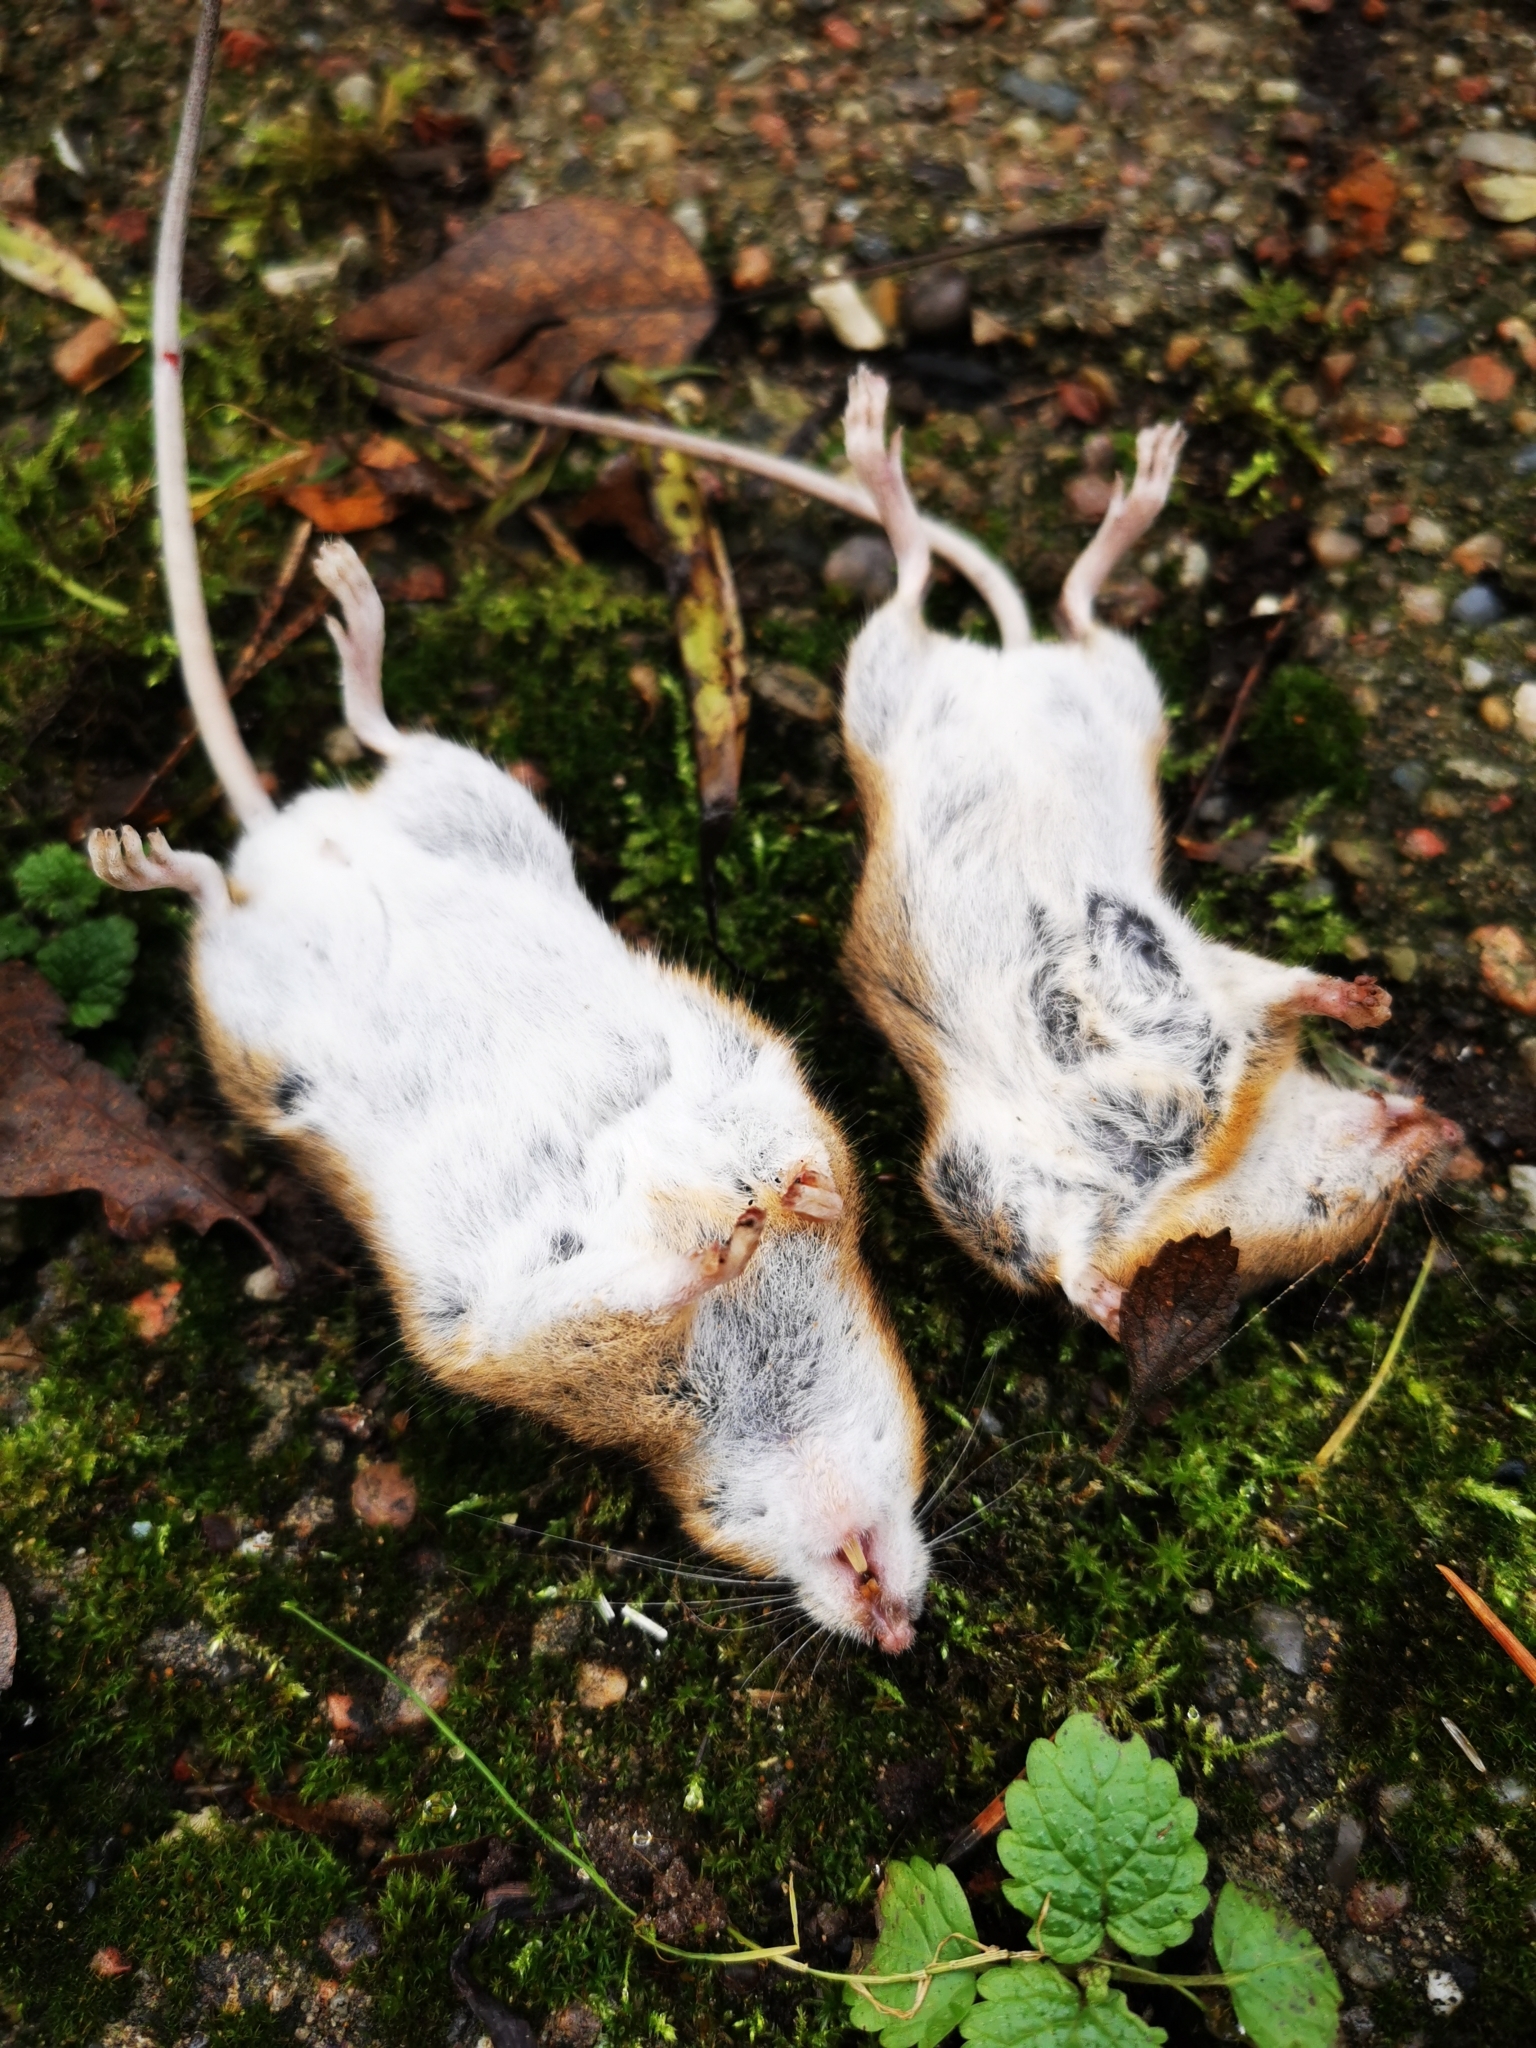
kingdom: Animalia
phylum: Chordata
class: Mammalia
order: Rodentia
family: Muridae
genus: Apodemus
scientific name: Apodemus flavicollis
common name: Yellow-necked field mouse
